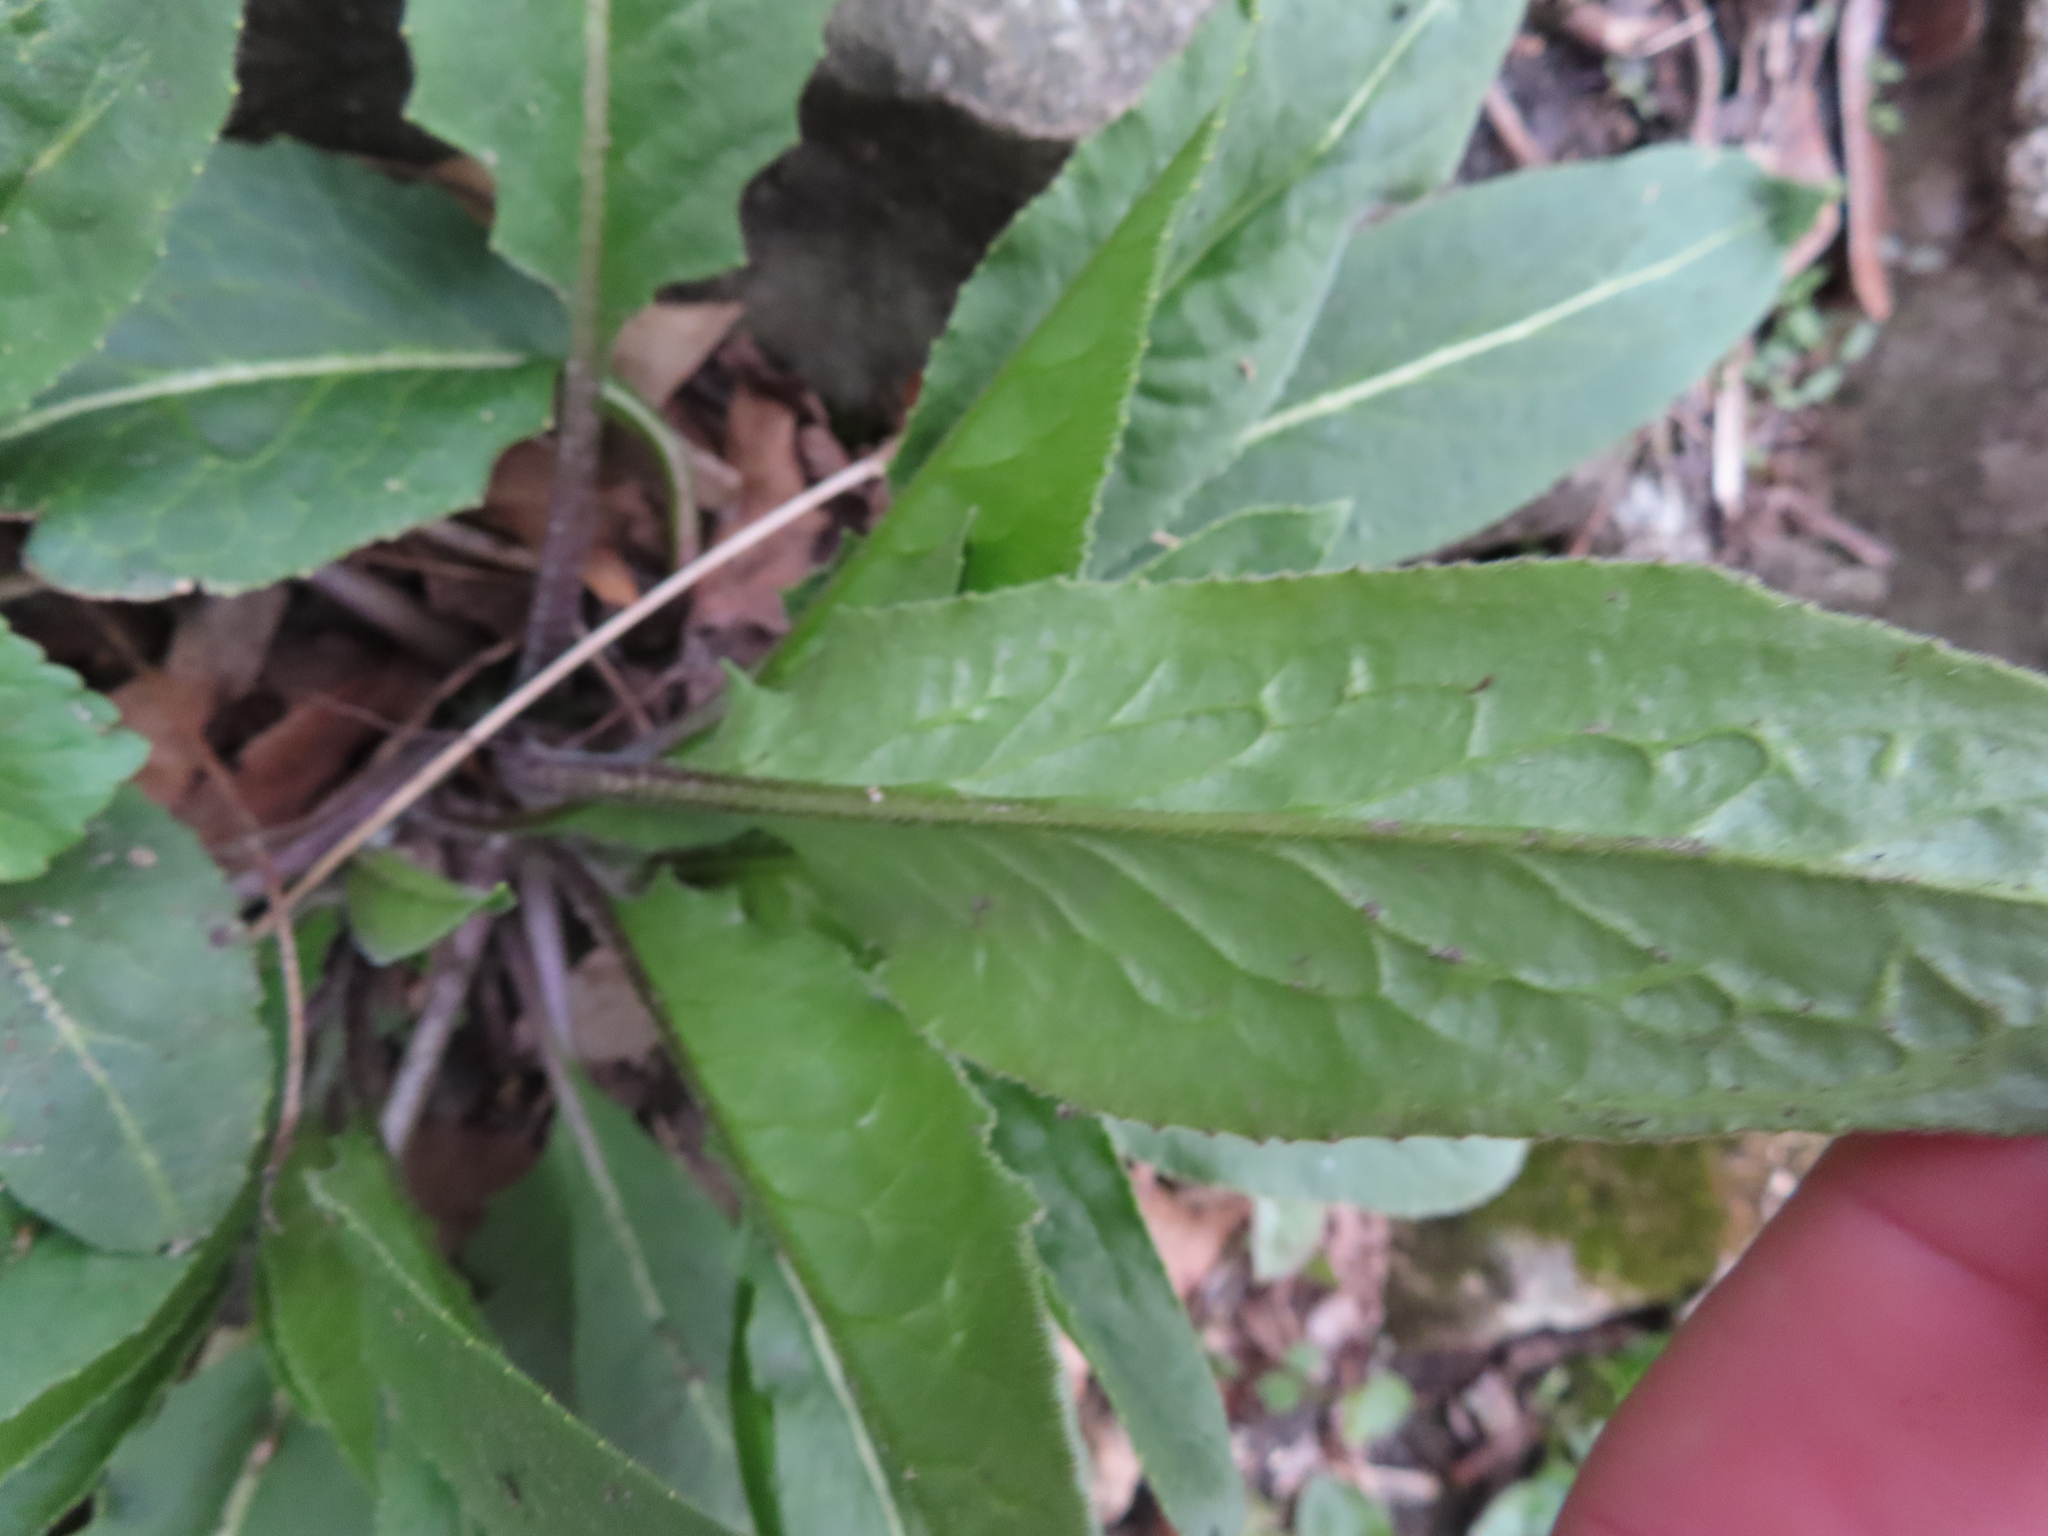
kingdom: Plantae
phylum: Tracheophyta
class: Magnoliopsida
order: Brassicales
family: Brassicaceae
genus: Hesperis
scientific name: Hesperis matronalis
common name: Dame's-violet
